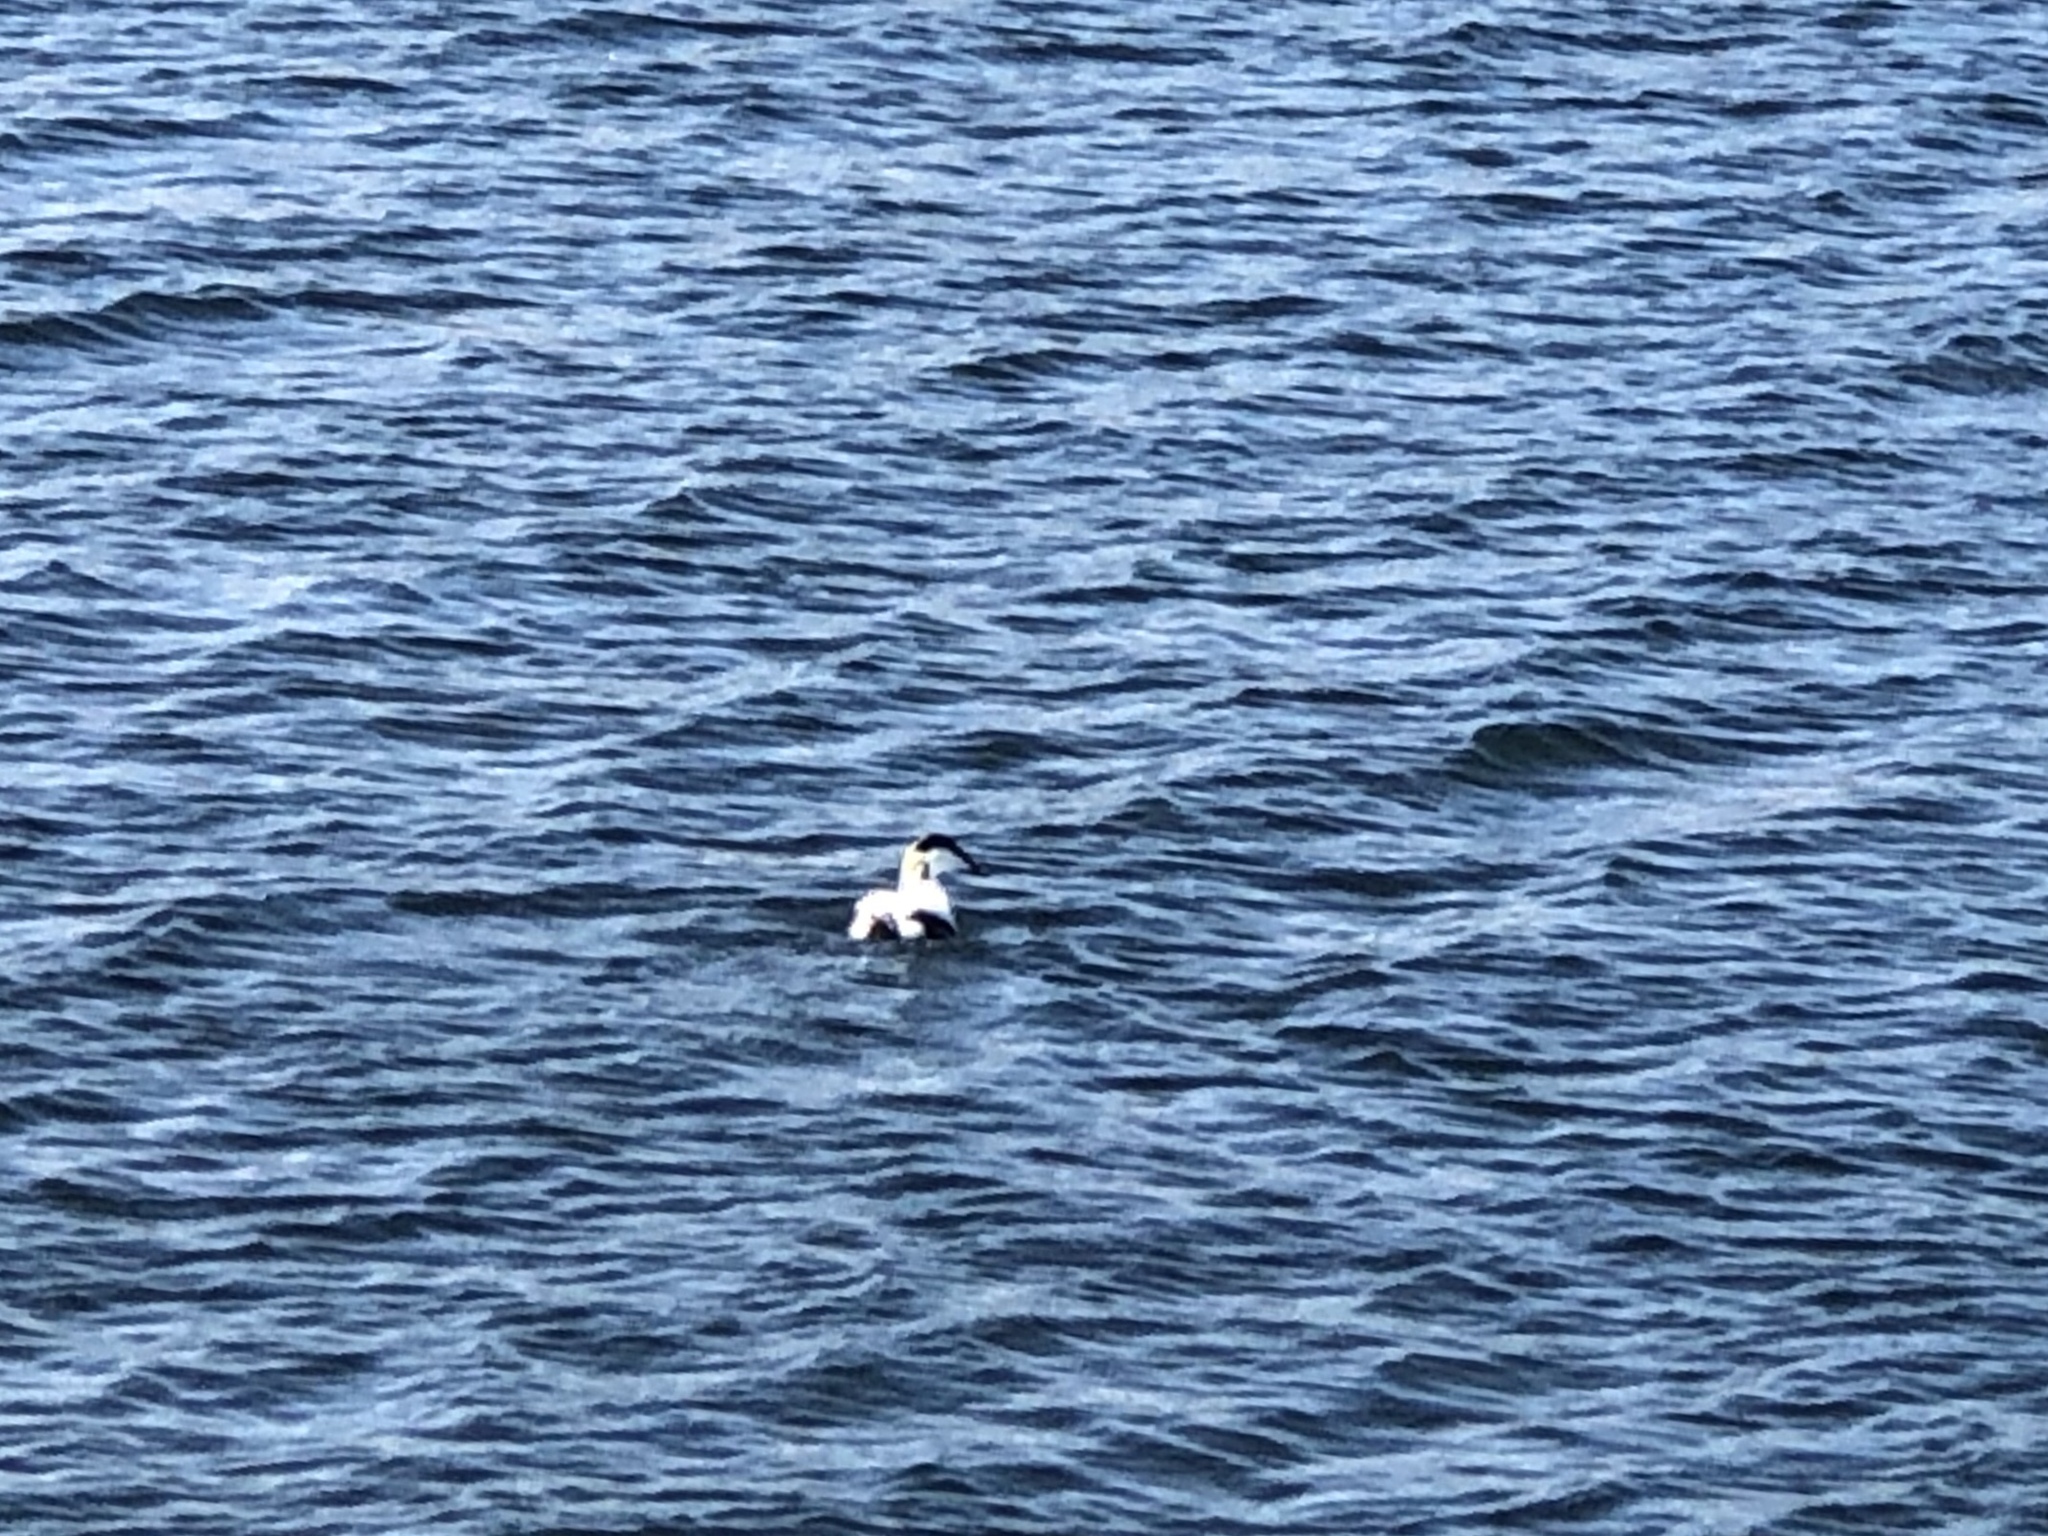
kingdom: Animalia
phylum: Chordata
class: Aves
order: Anseriformes
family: Anatidae
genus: Somateria
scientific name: Somateria mollissima
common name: Common eider
